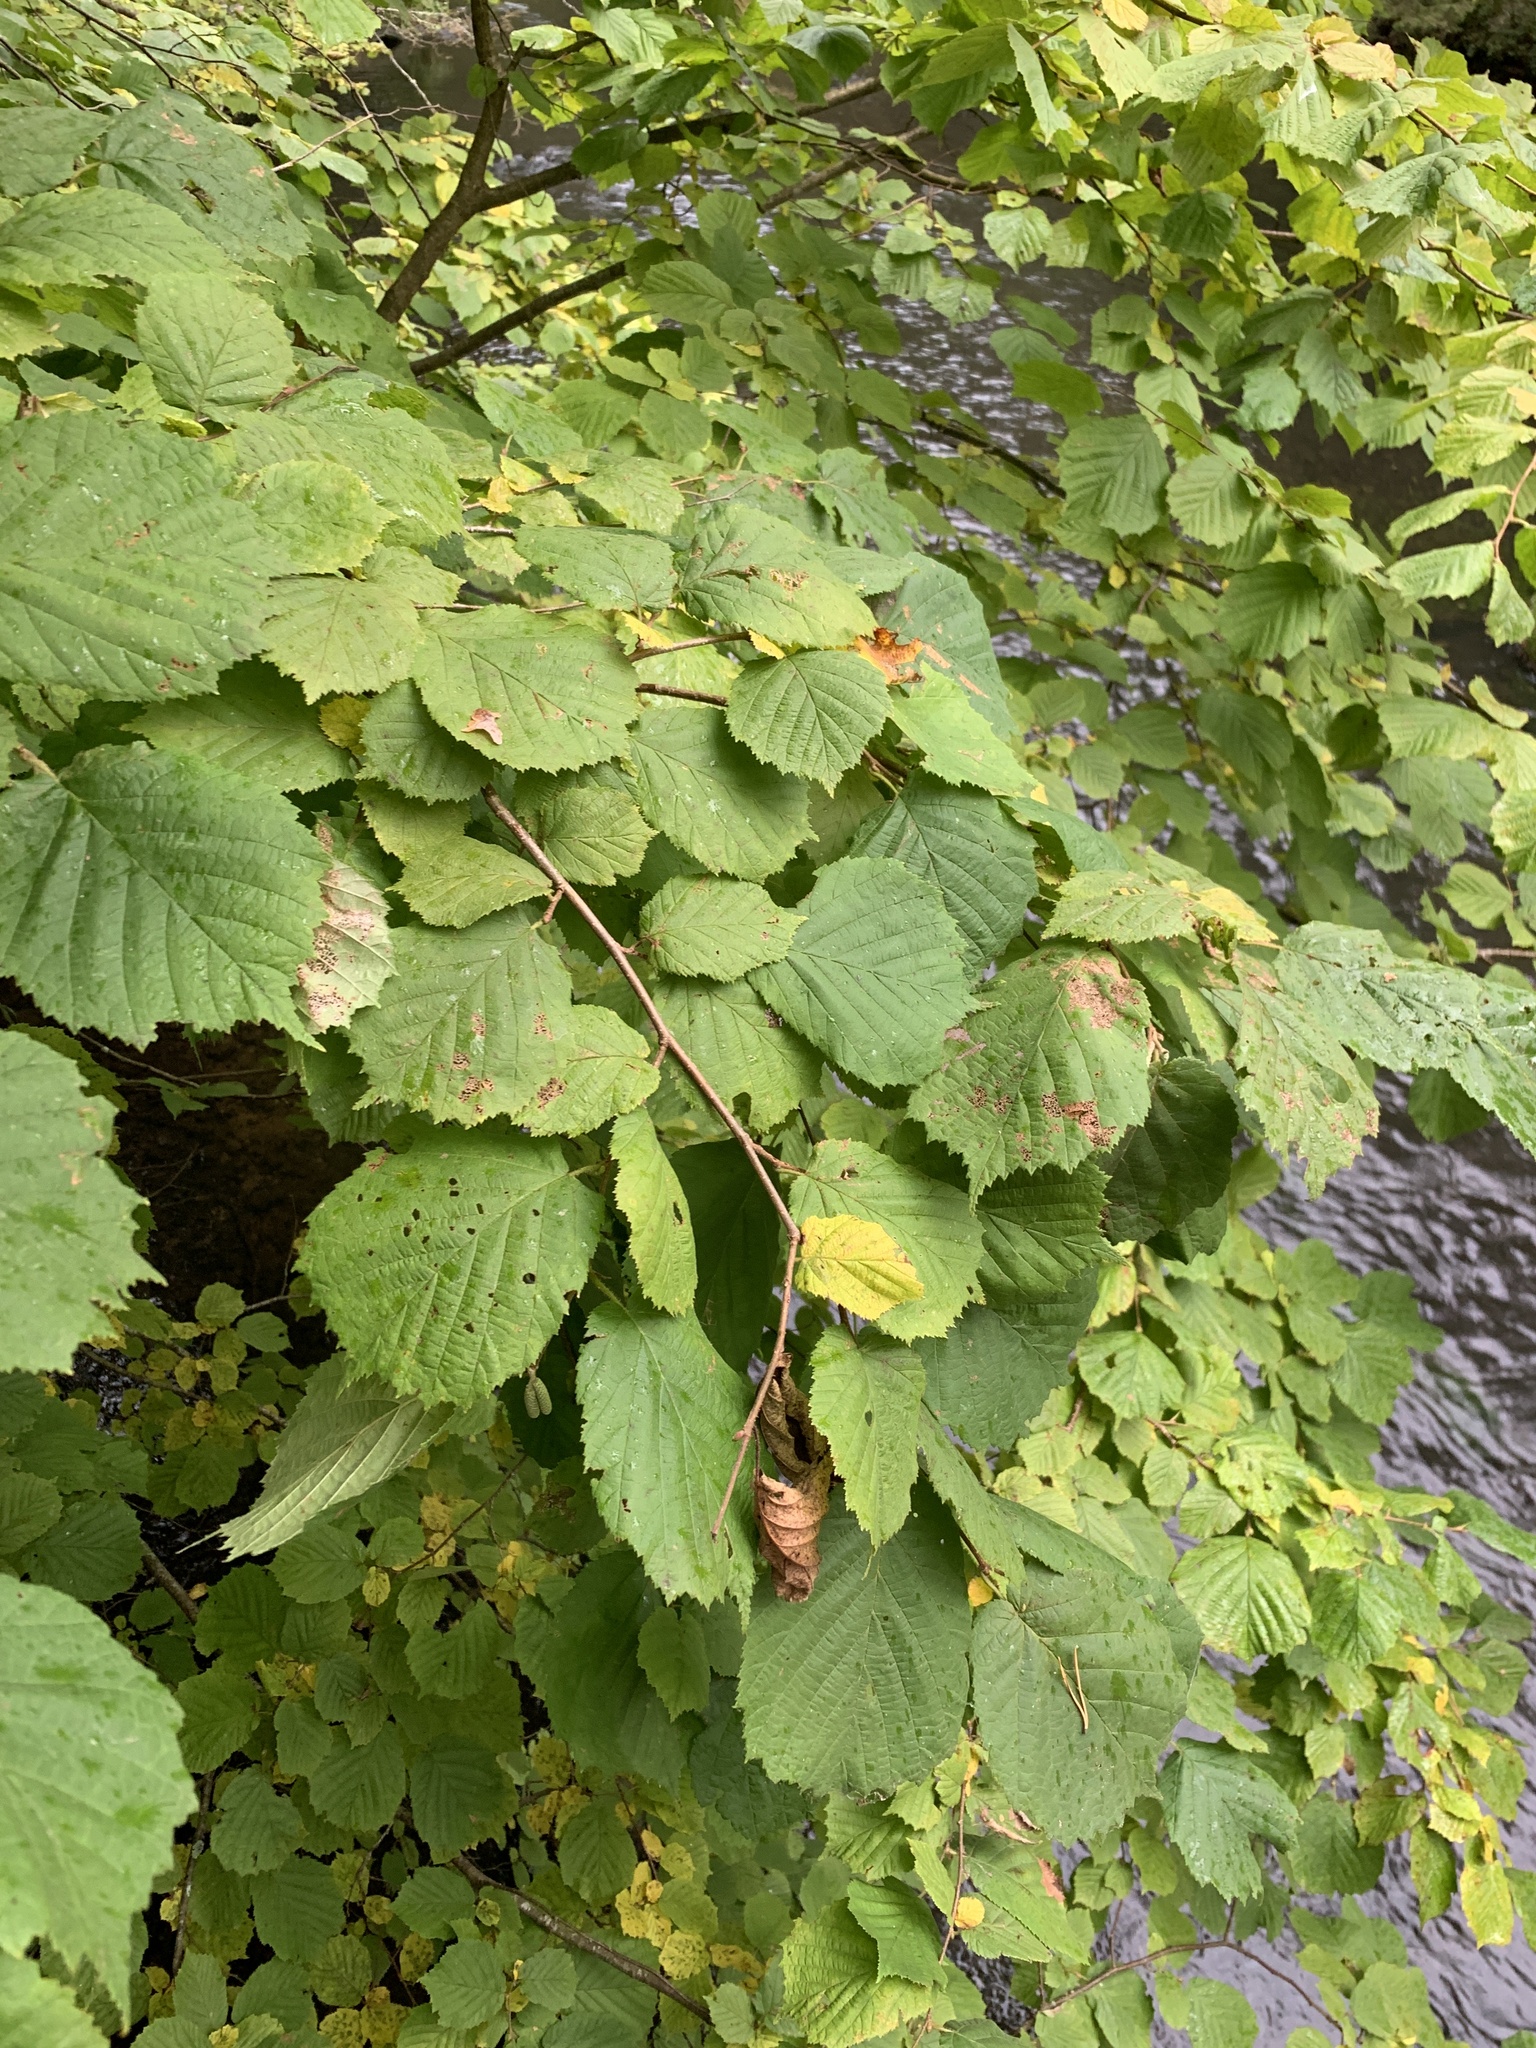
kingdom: Plantae
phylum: Tracheophyta
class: Magnoliopsida
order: Fagales
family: Betulaceae
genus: Corylus
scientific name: Corylus avellana
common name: European hazel
